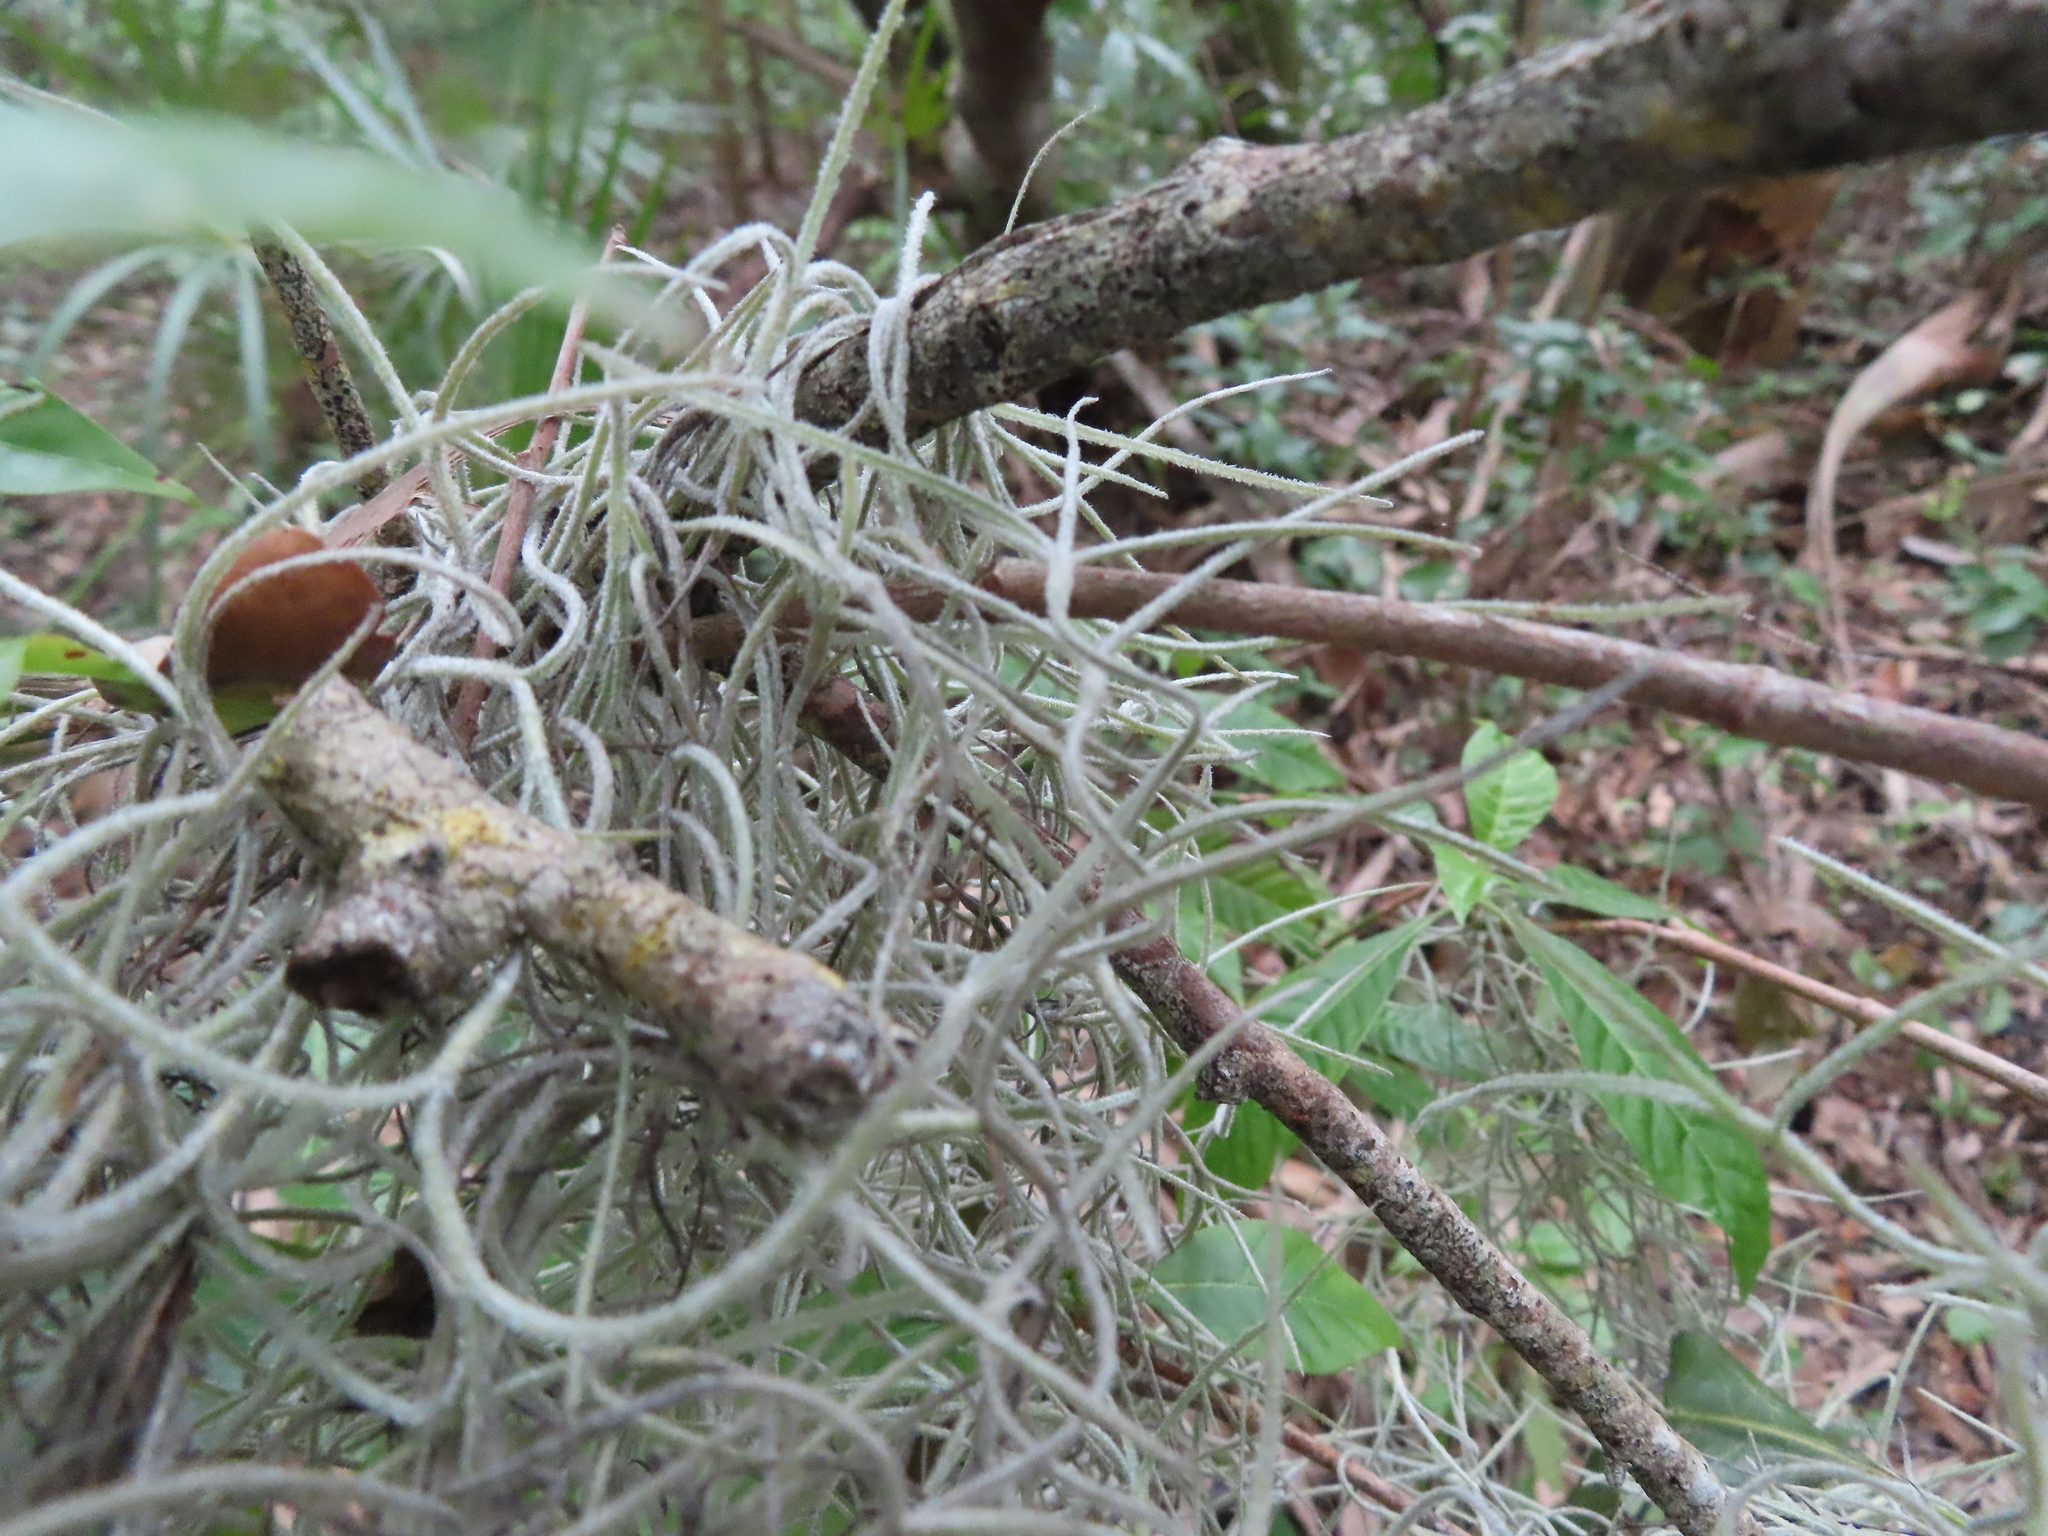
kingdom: Plantae
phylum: Tracheophyta
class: Liliopsida
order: Poales
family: Bromeliaceae
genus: Tillandsia
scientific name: Tillandsia usneoides
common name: Spanish moss
